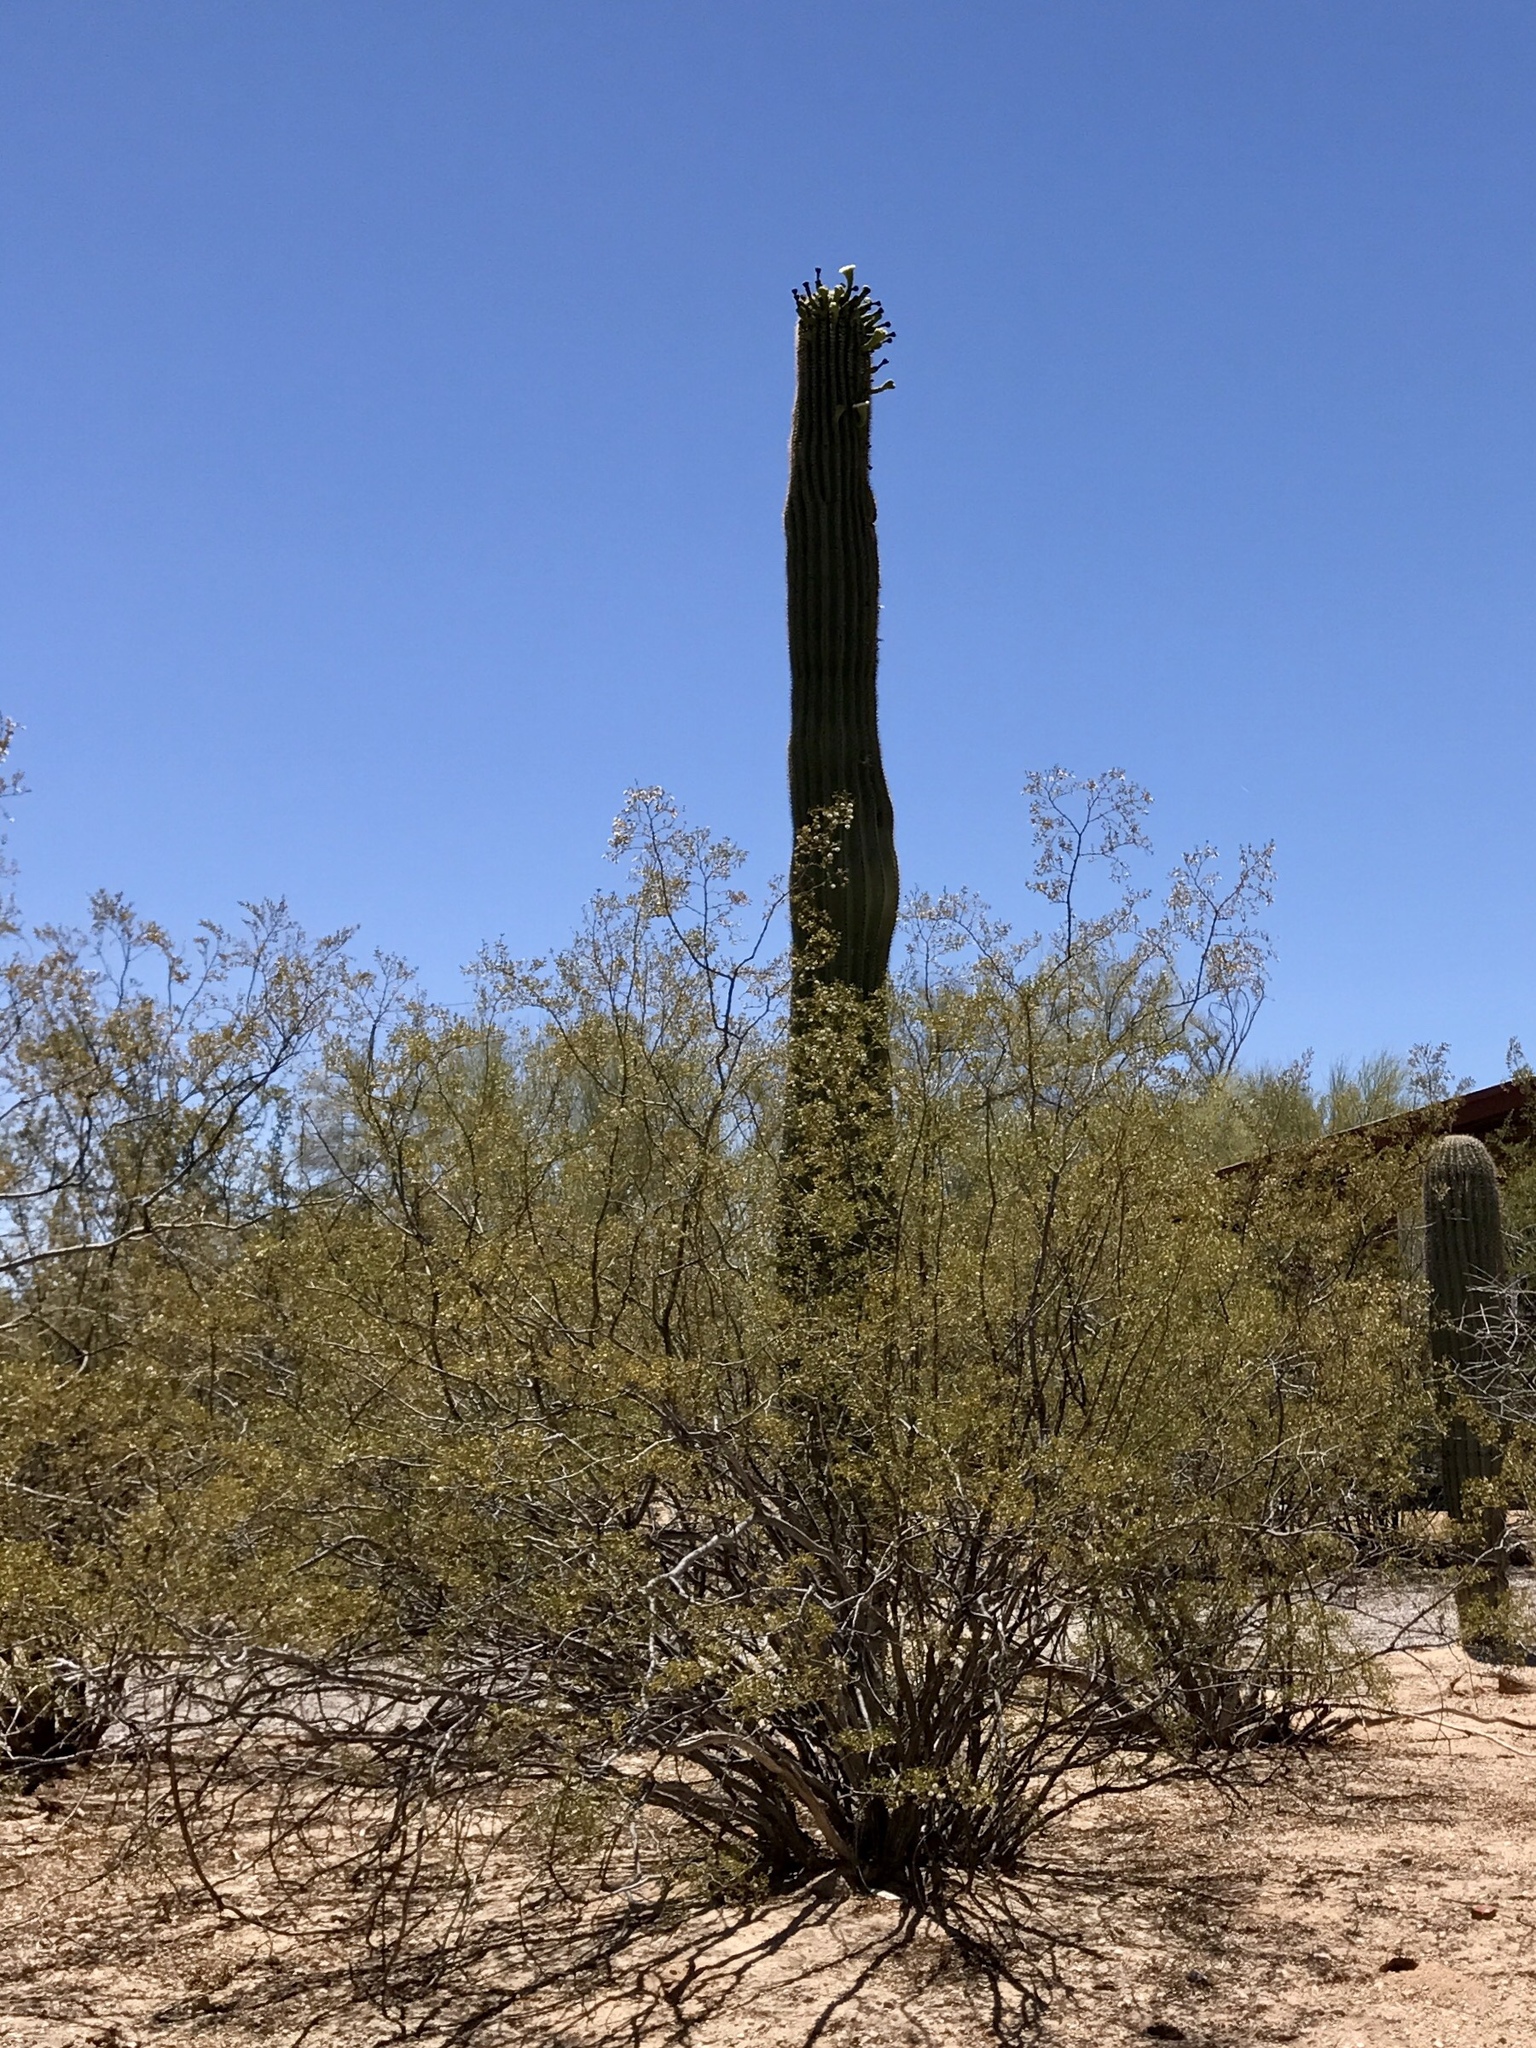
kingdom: Plantae
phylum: Tracheophyta
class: Magnoliopsida
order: Zygophyllales
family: Zygophyllaceae
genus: Larrea
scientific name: Larrea tridentata
